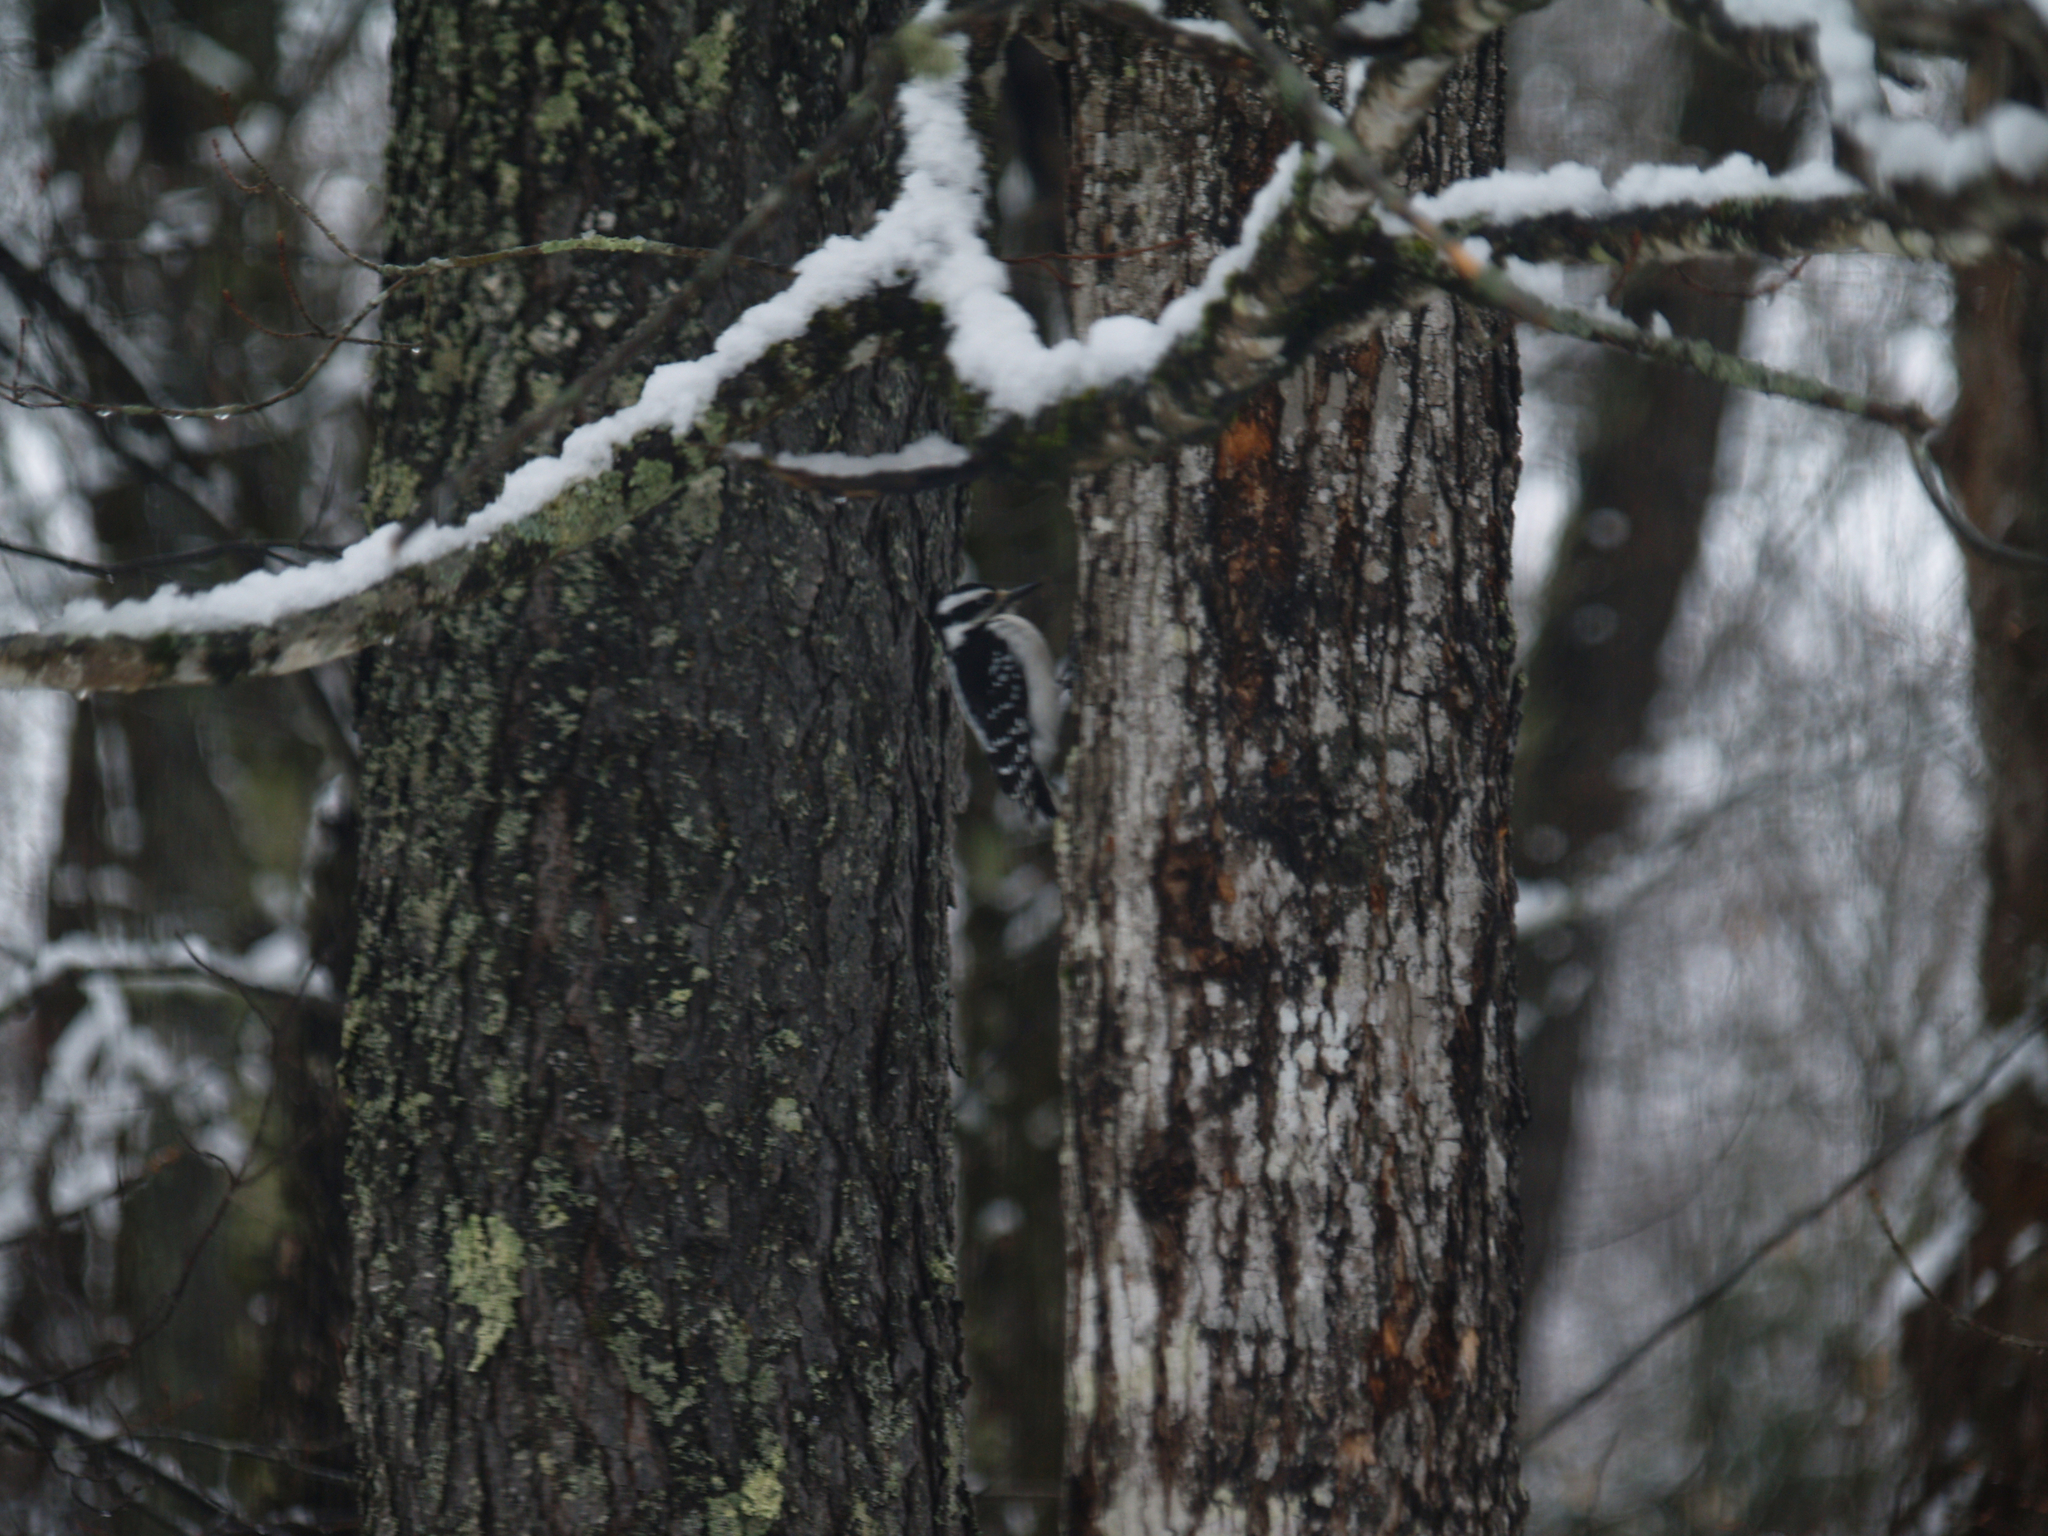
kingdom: Animalia
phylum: Chordata
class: Aves
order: Piciformes
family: Picidae
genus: Leuconotopicus
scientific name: Leuconotopicus villosus
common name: Hairy woodpecker
